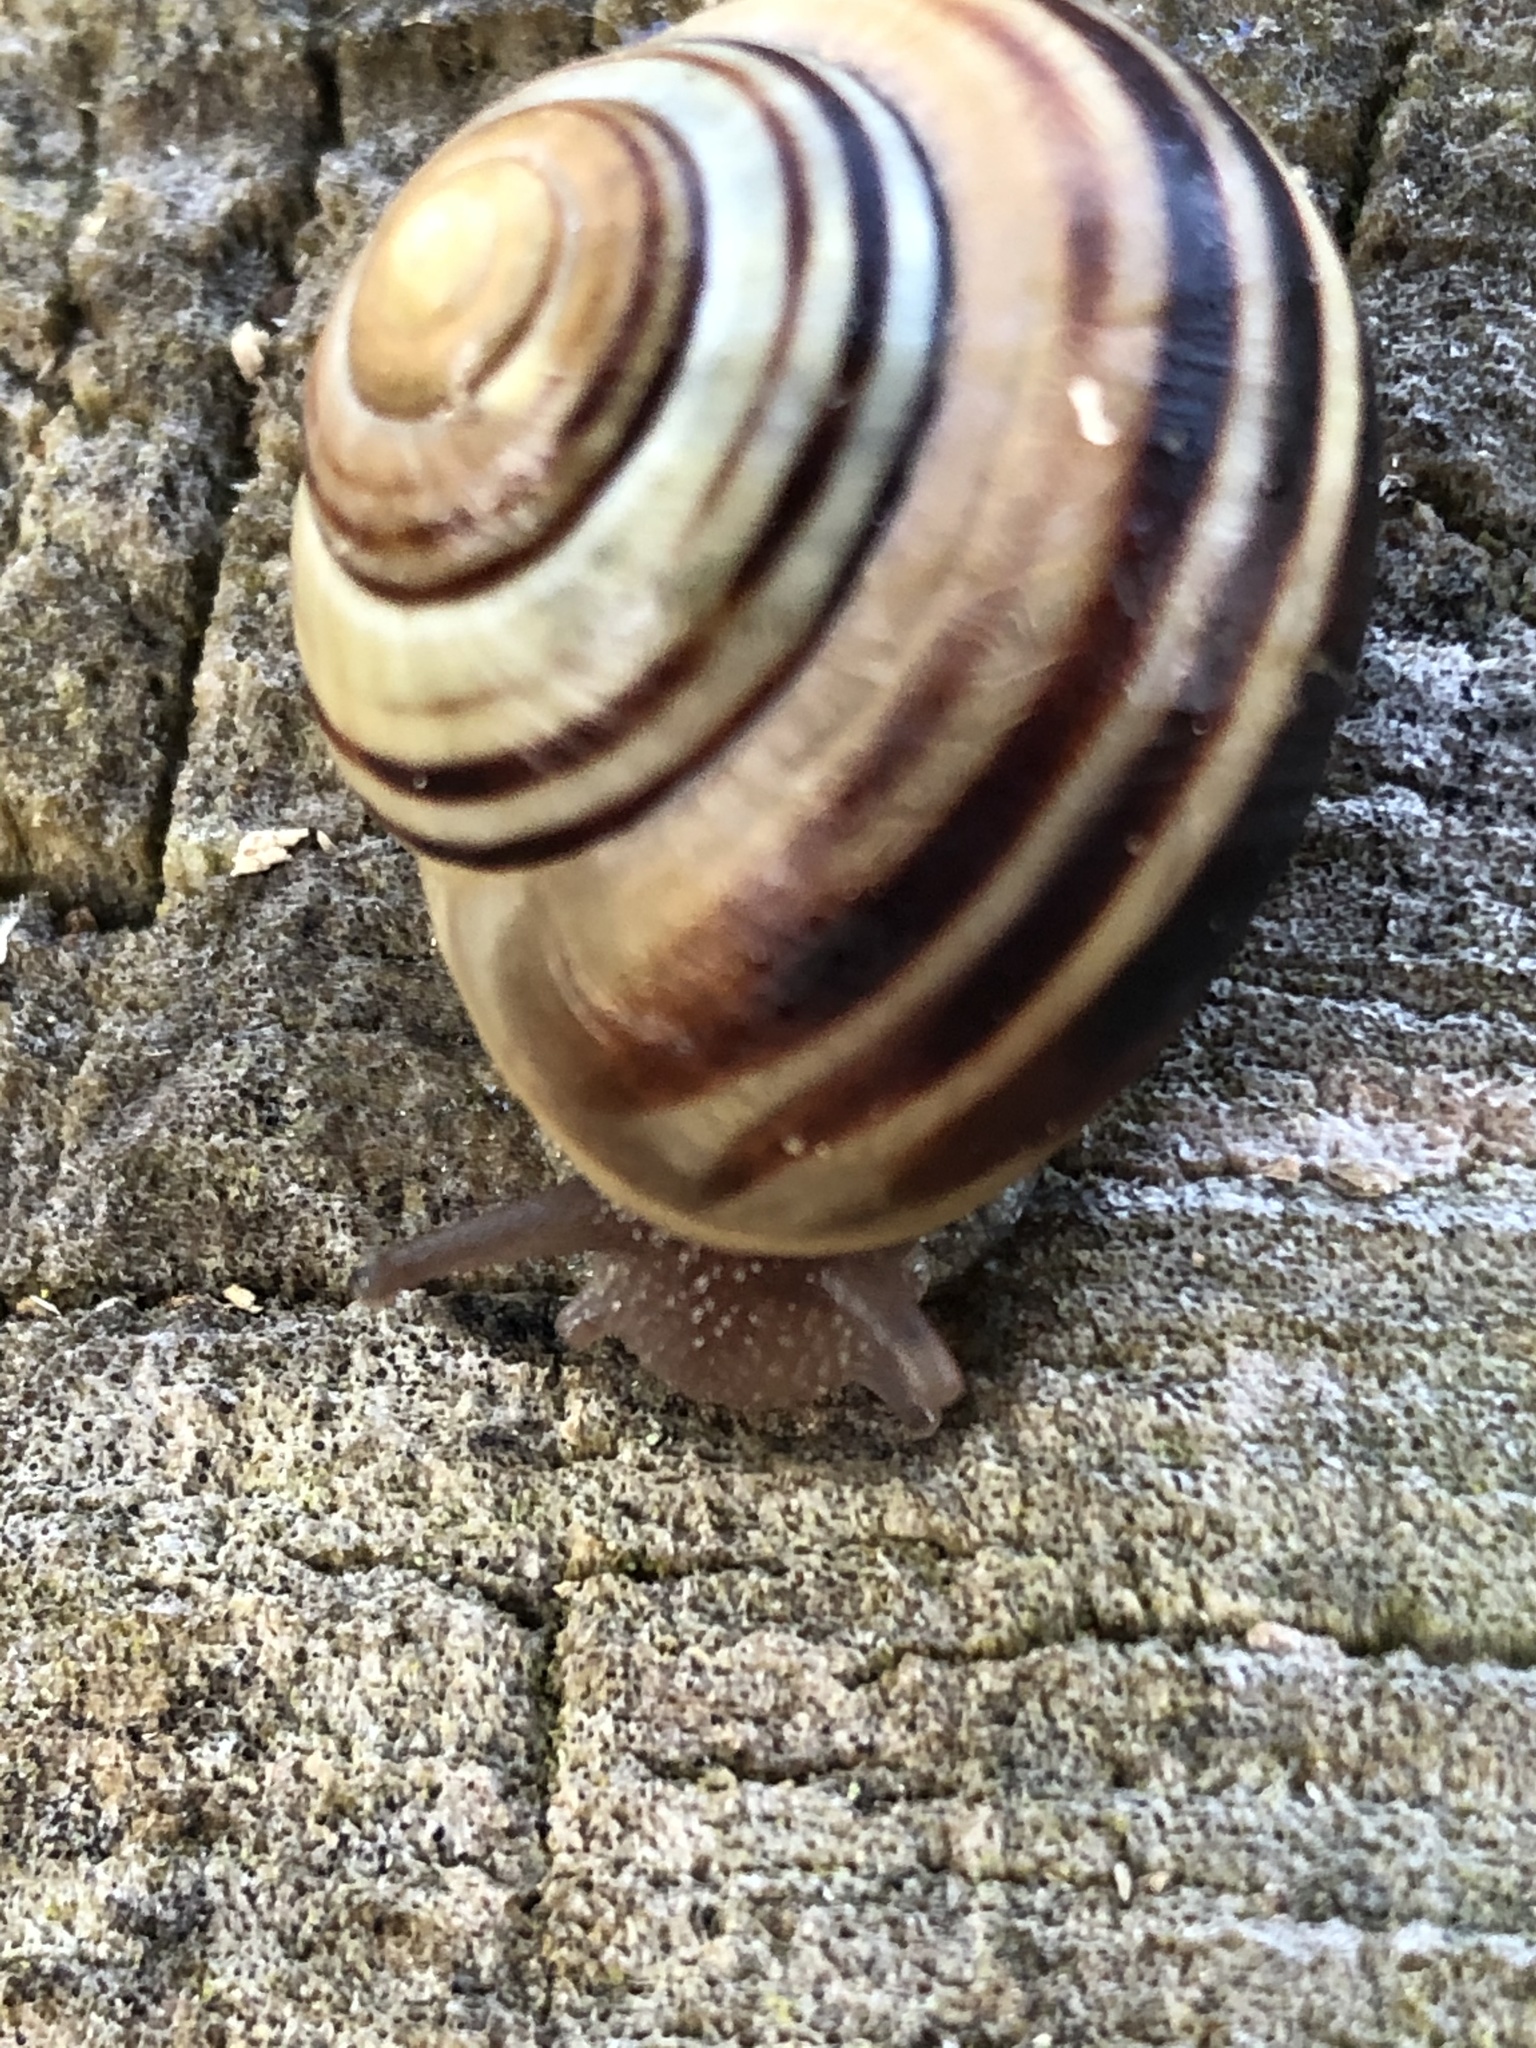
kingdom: Animalia
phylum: Mollusca
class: Gastropoda
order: Stylommatophora
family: Helicidae
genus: Cepaea
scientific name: Cepaea
